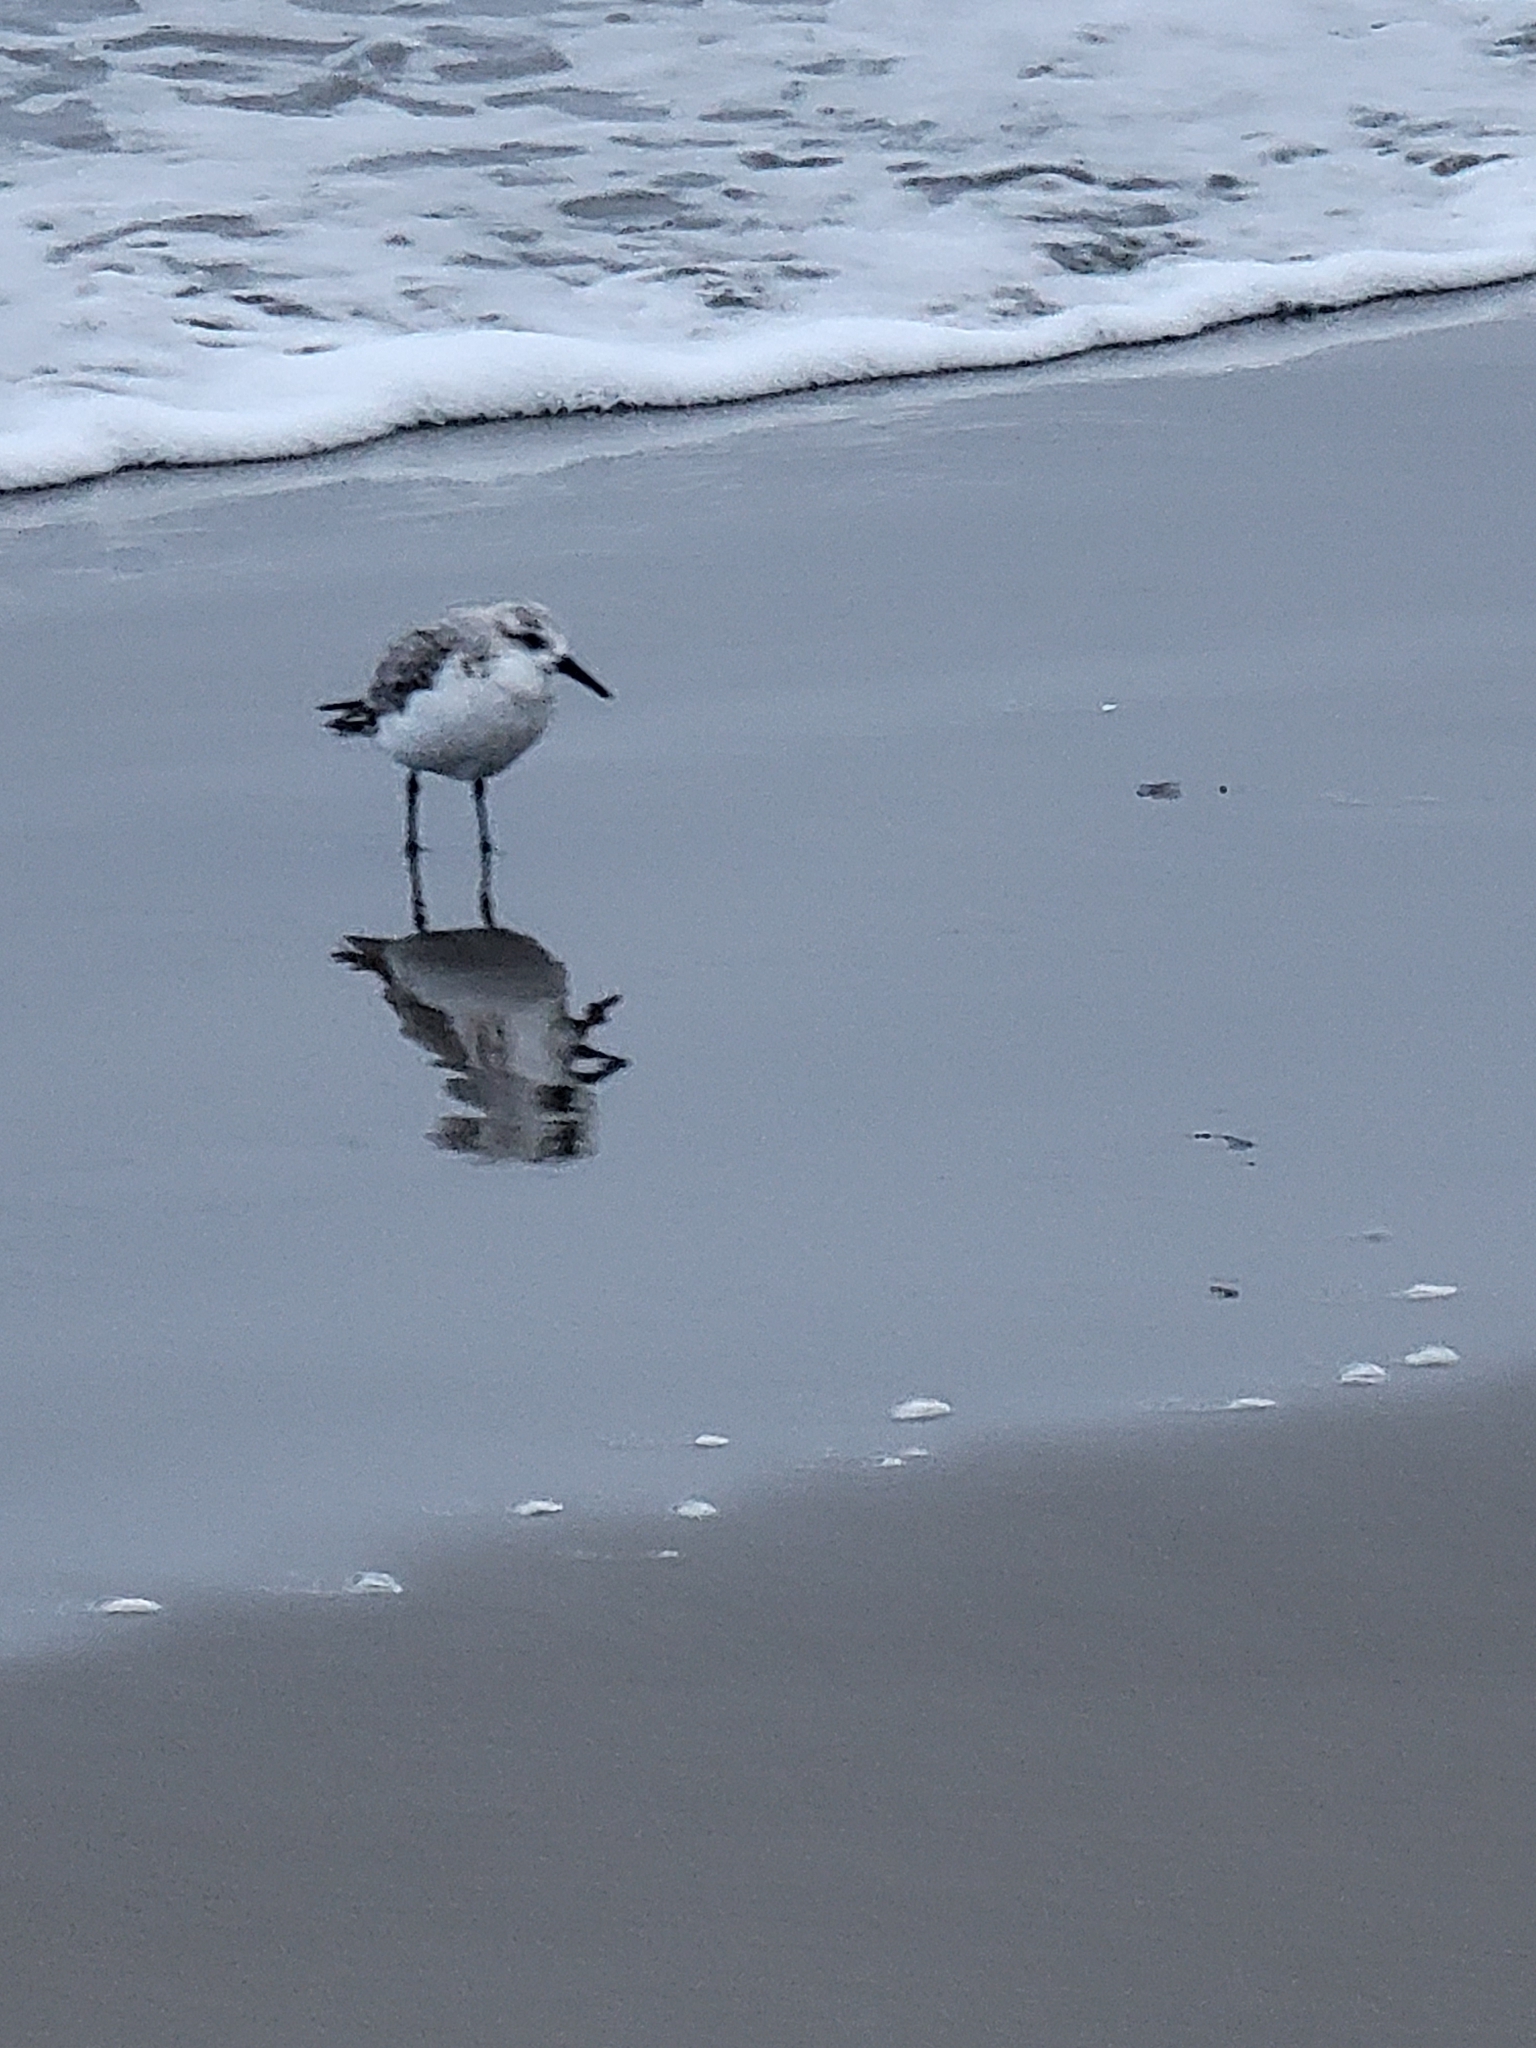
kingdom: Animalia
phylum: Chordata
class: Aves
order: Charadriiformes
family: Scolopacidae
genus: Calidris
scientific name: Calidris alba
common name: Sanderling
